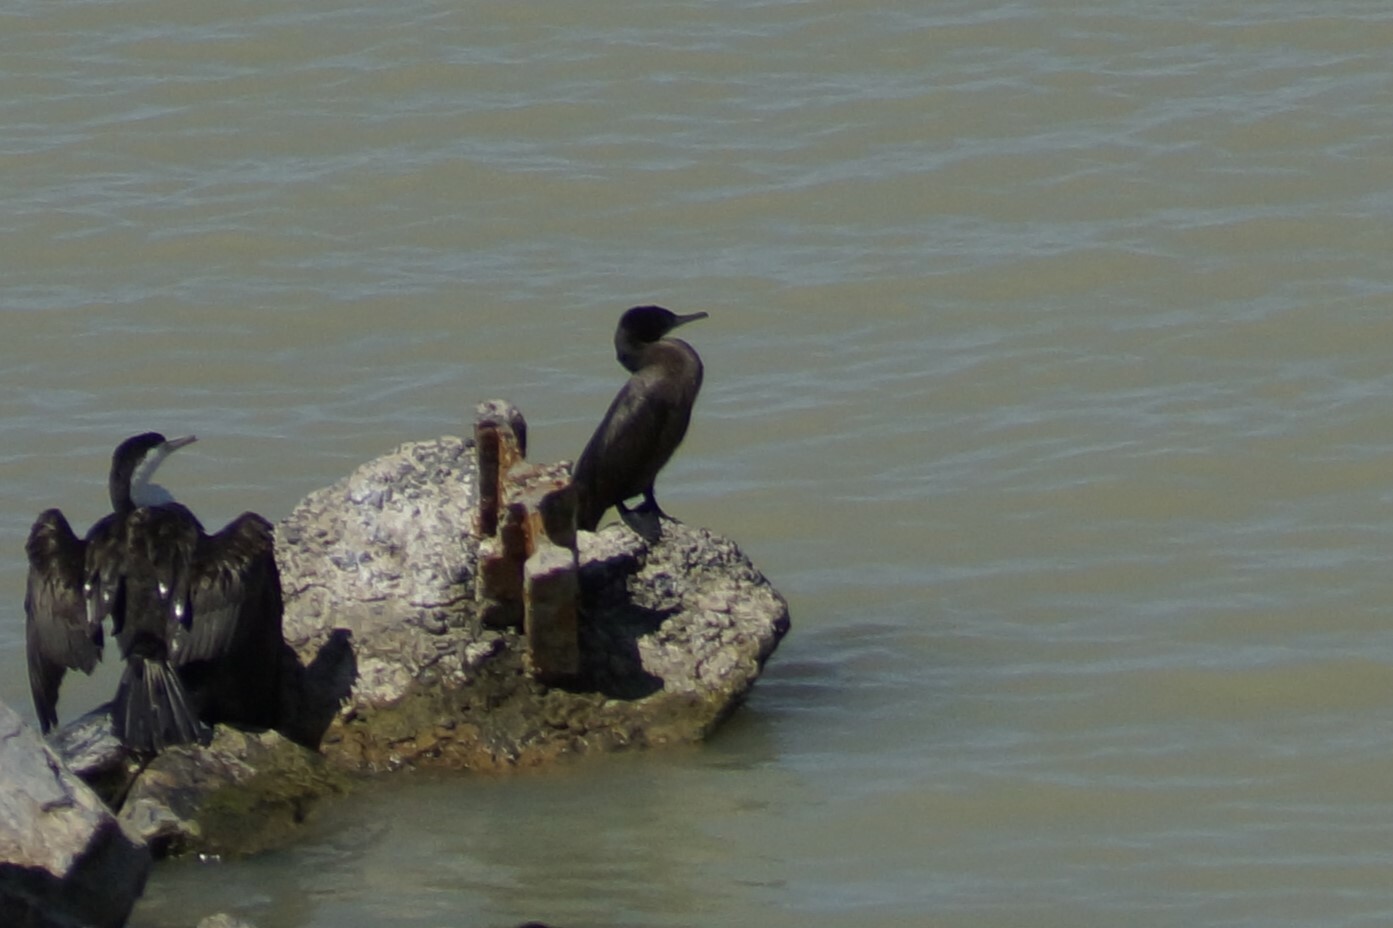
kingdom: Animalia
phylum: Chordata
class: Aves
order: Suliformes
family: Phalacrocoracidae
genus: Phalacrocorax
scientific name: Phalacrocorax sulcirostris
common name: Little black cormorant
